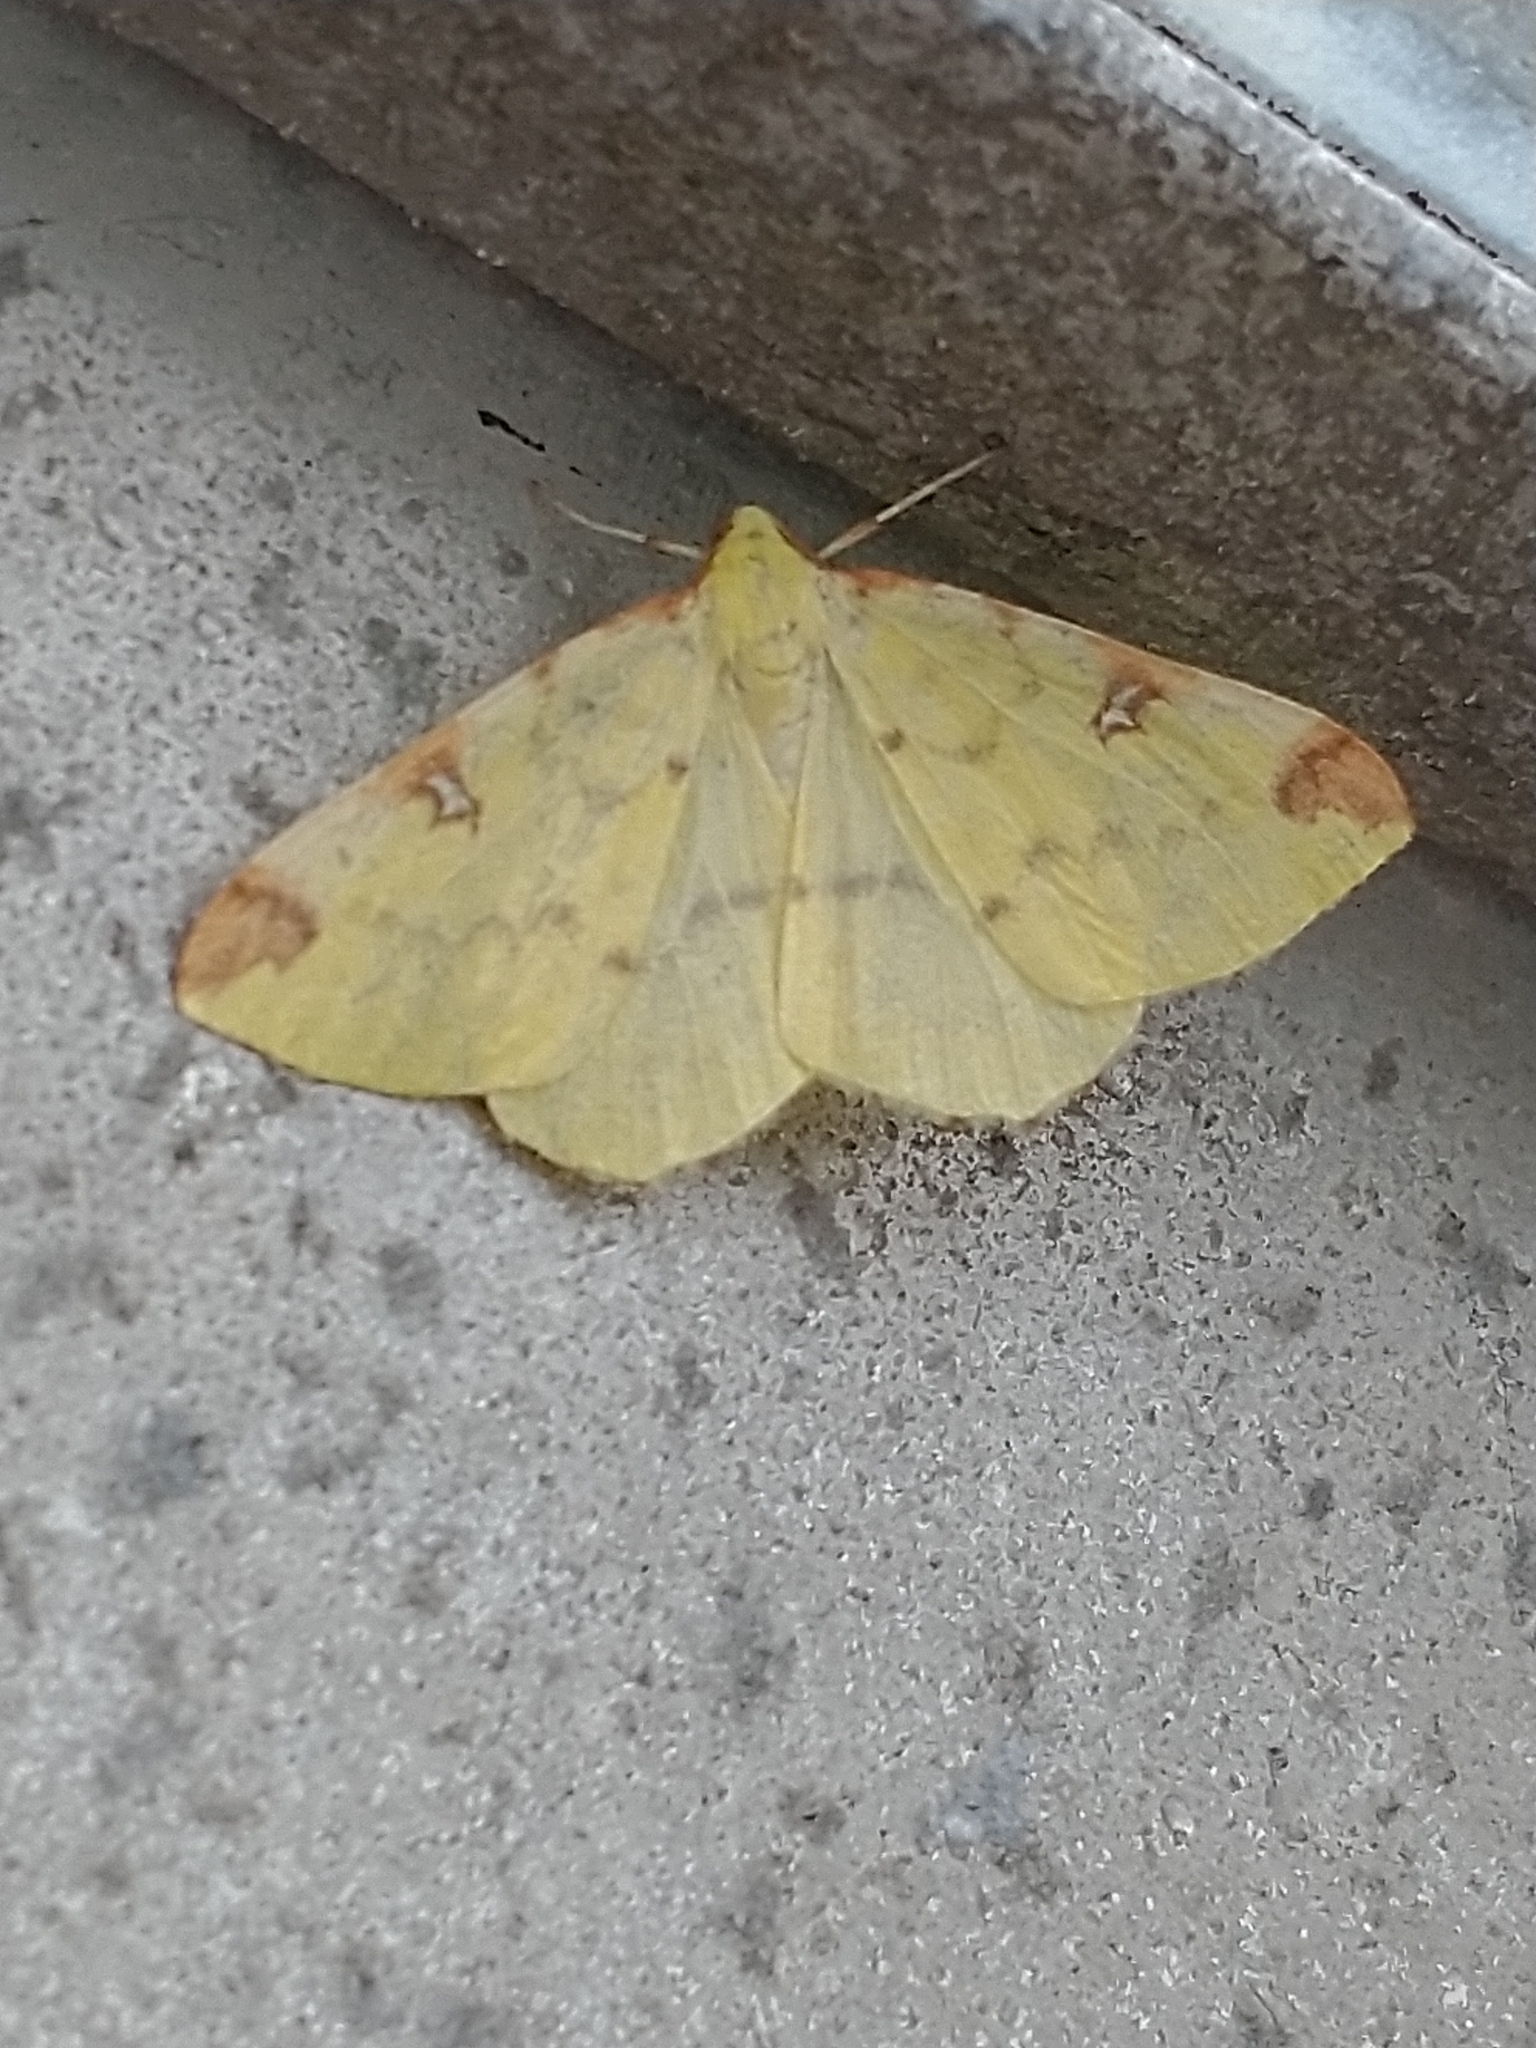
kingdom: Animalia
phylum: Arthropoda
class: Insecta
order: Lepidoptera
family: Geometridae
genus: Opisthograptis
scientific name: Opisthograptis luteolata
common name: Brimstone moth
